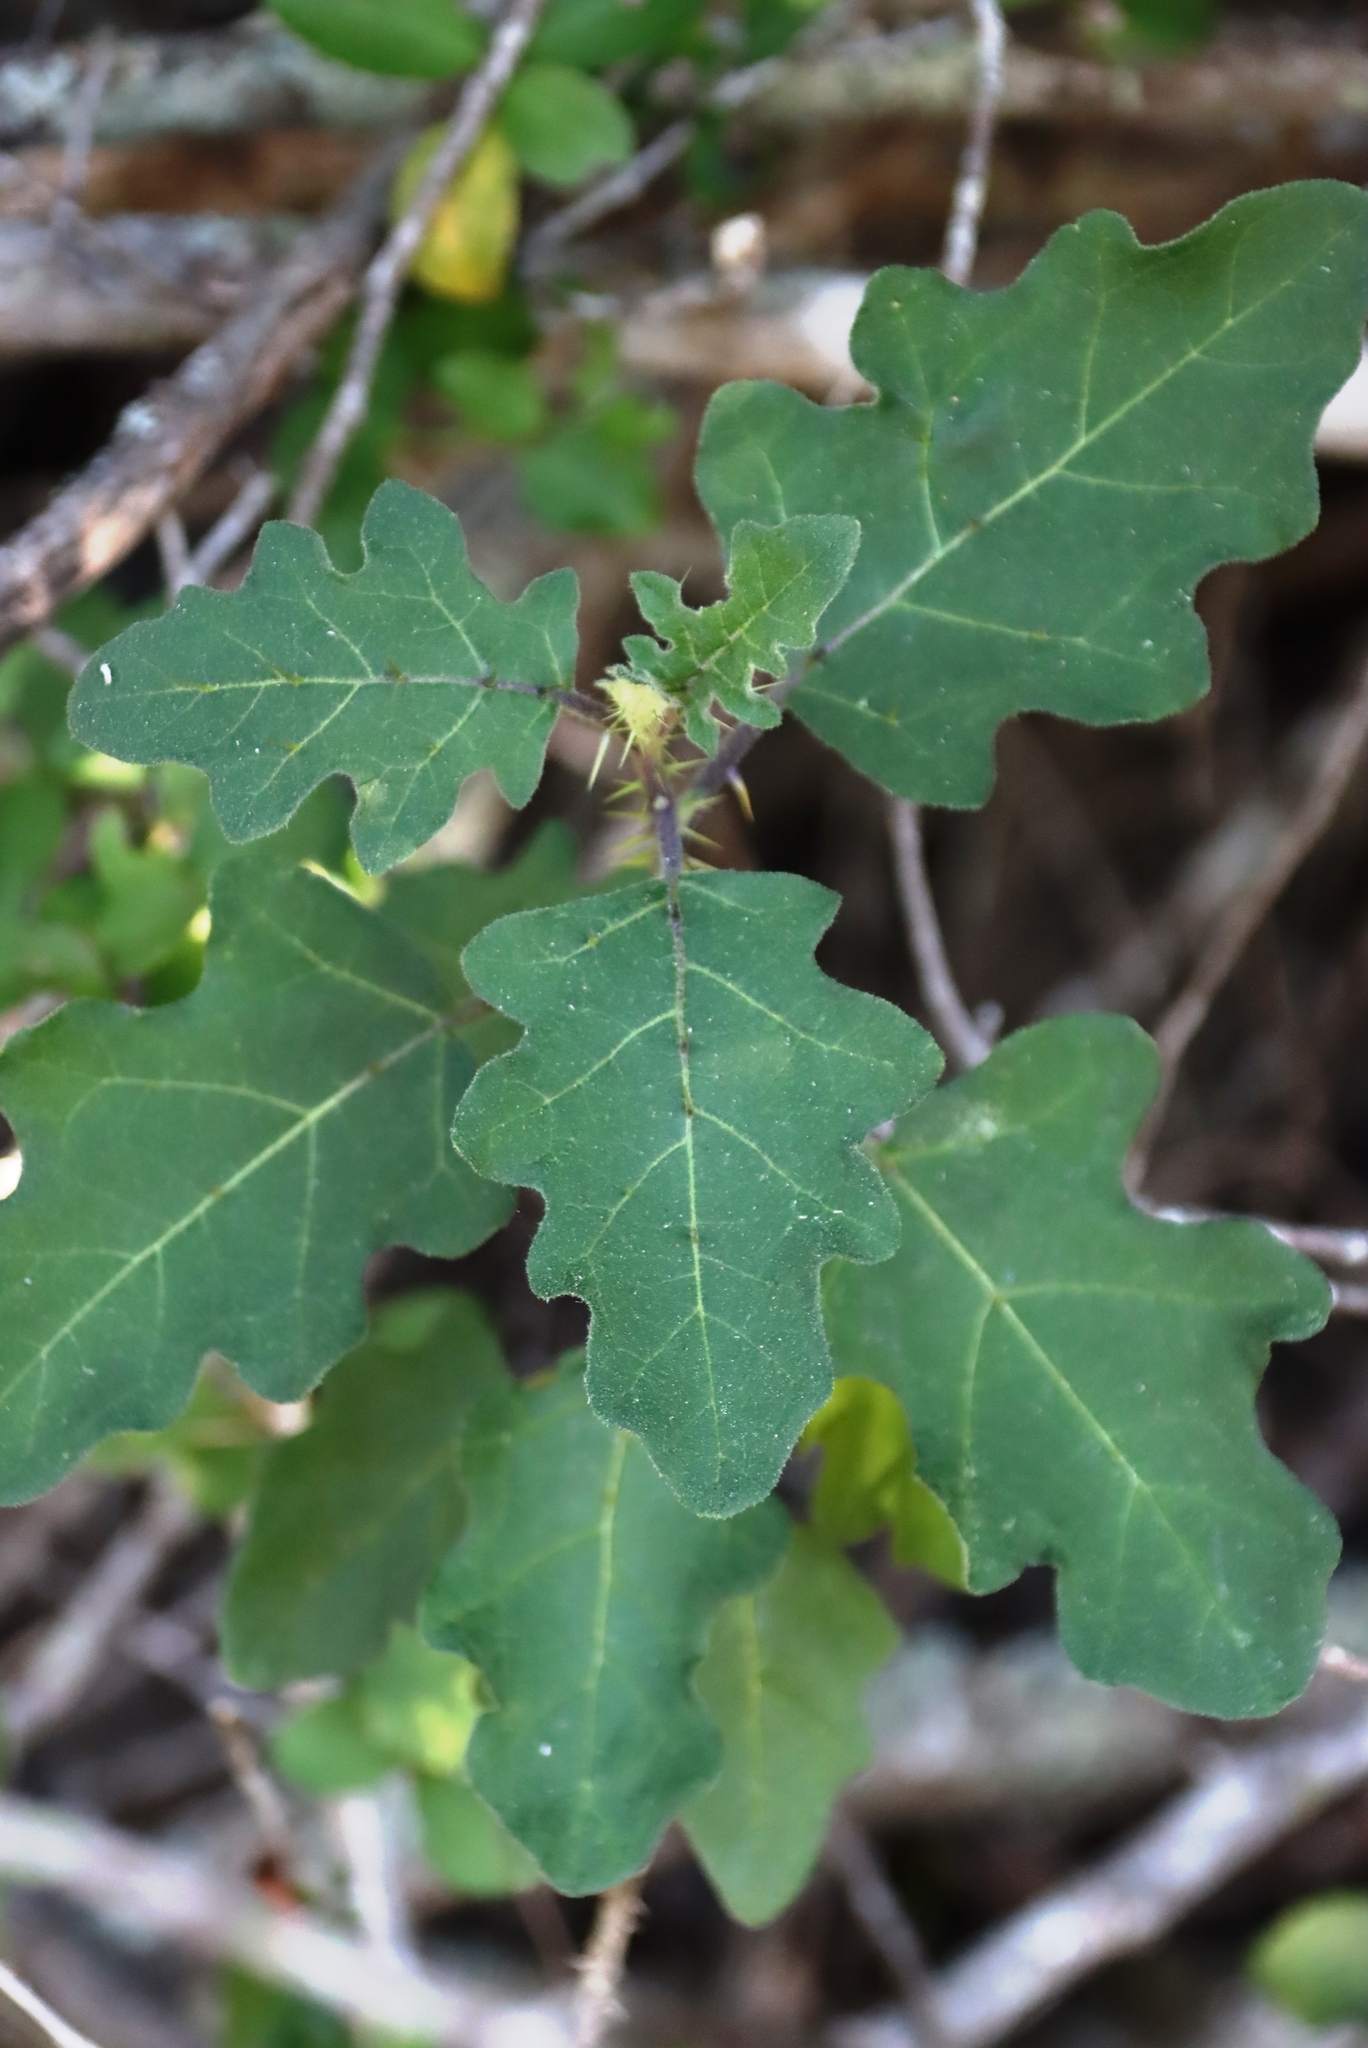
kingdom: Plantae
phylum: Tracheophyta
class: Magnoliopsida
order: Solanales
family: Solanaceae
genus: Solanum
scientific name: Solanum rubetorum
